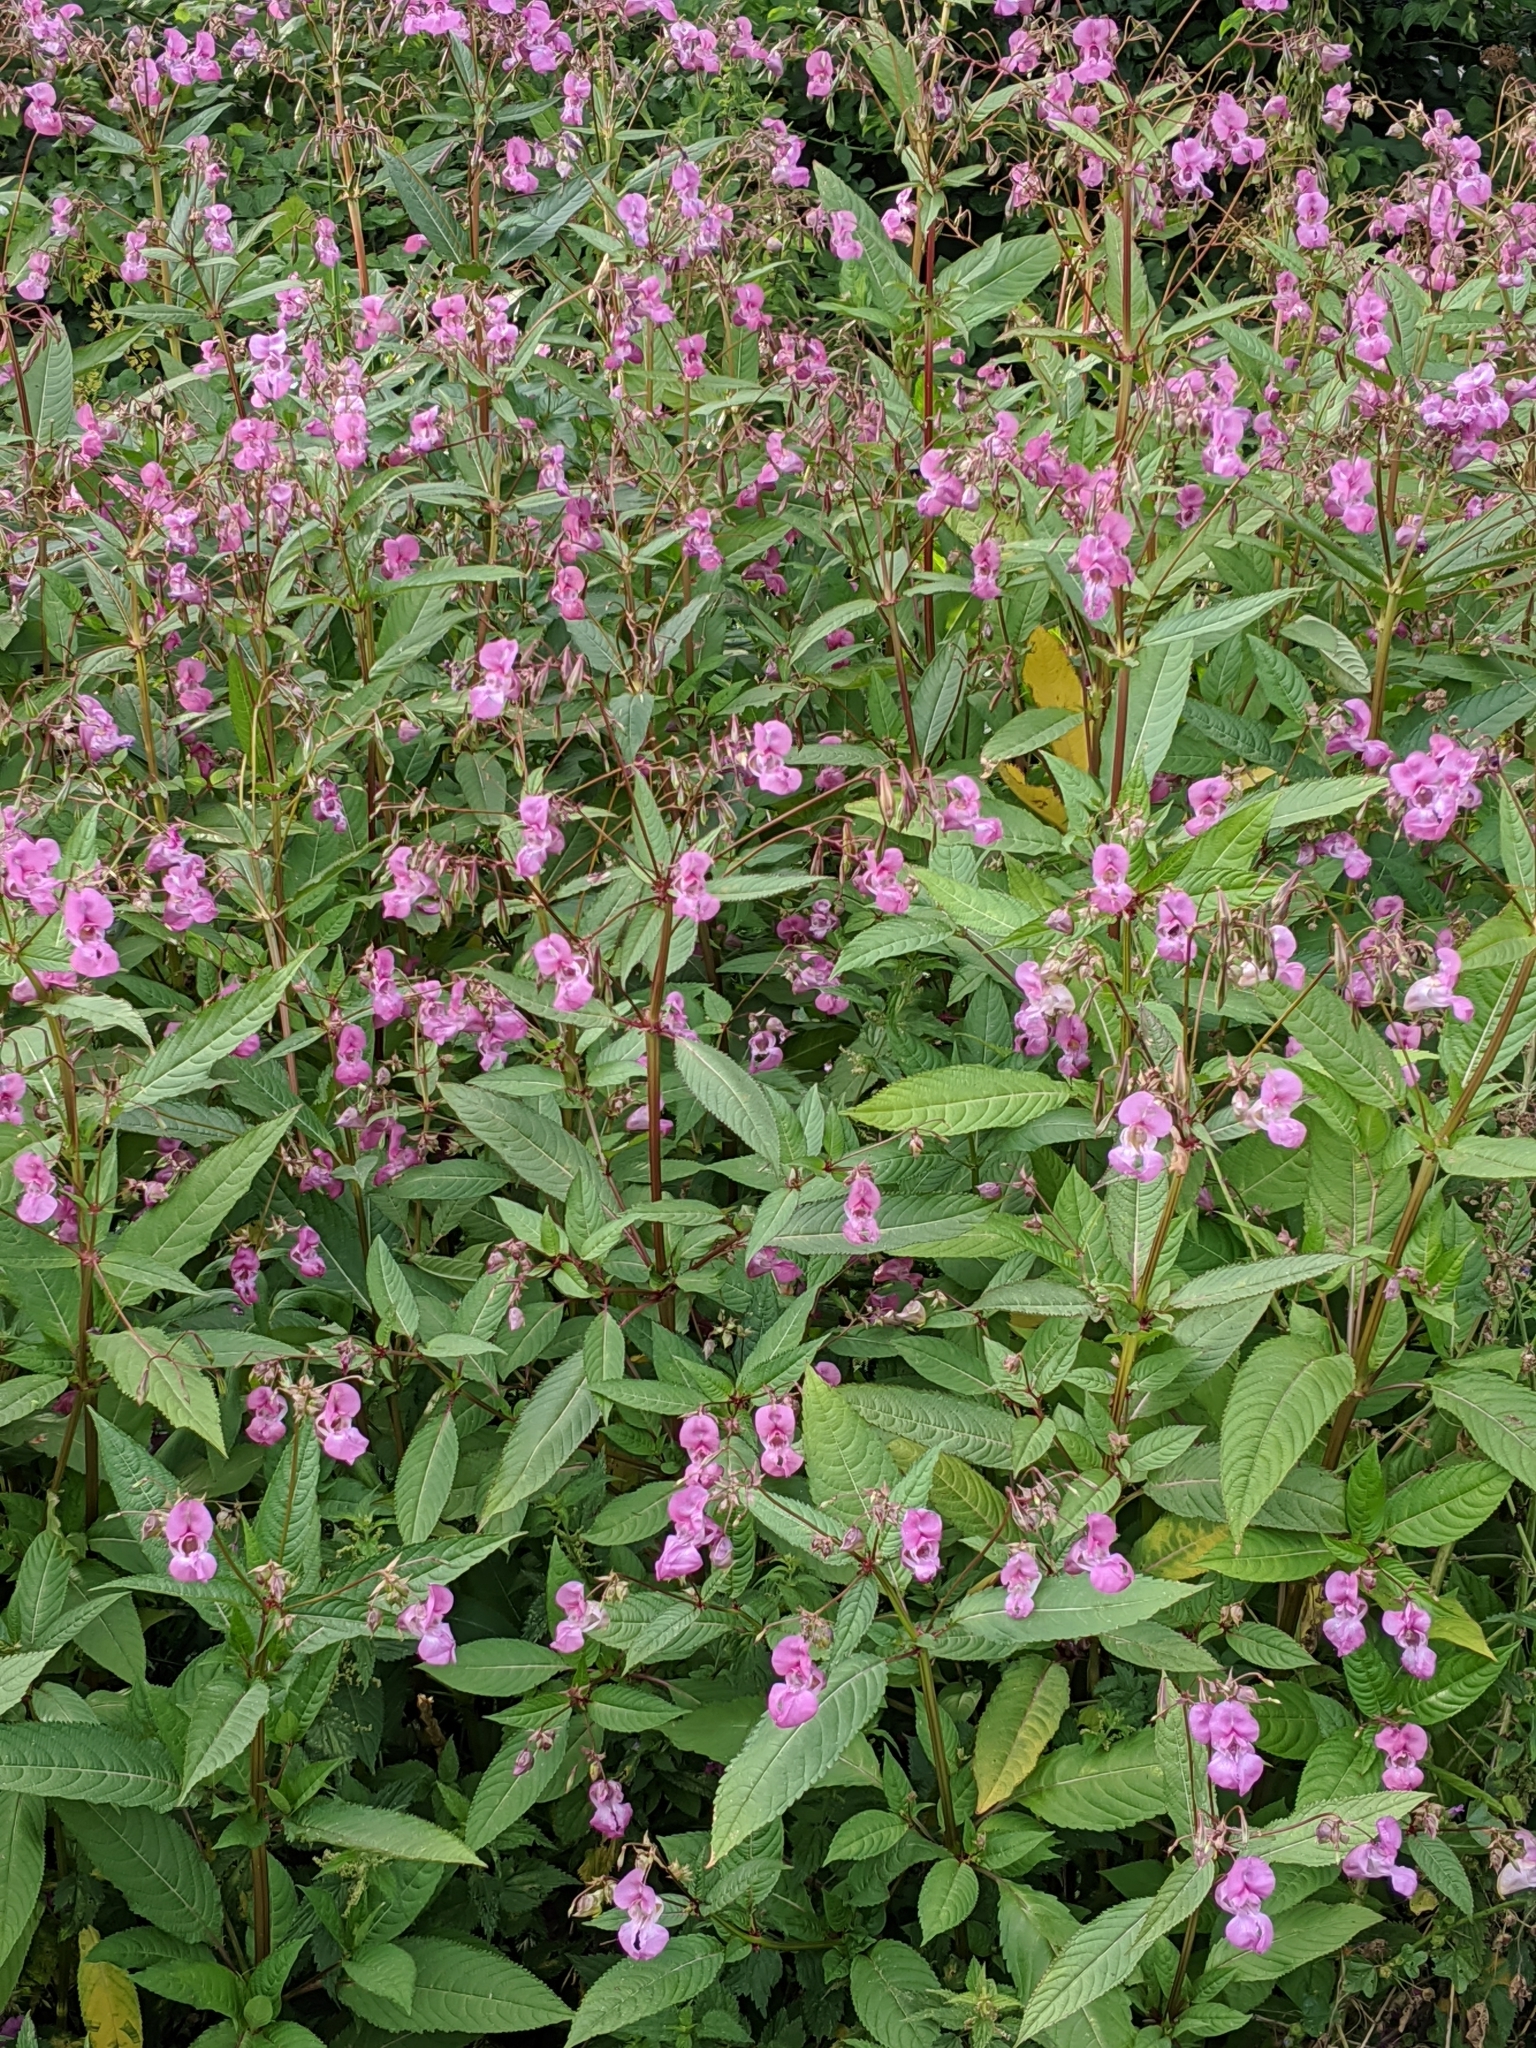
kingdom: Plantae
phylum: Tracheophyta
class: Magnoliopsida
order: Ericales
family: Balsaminaceae
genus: Impatiens
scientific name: Impatiens glandulifera
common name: Himalayan balsam
